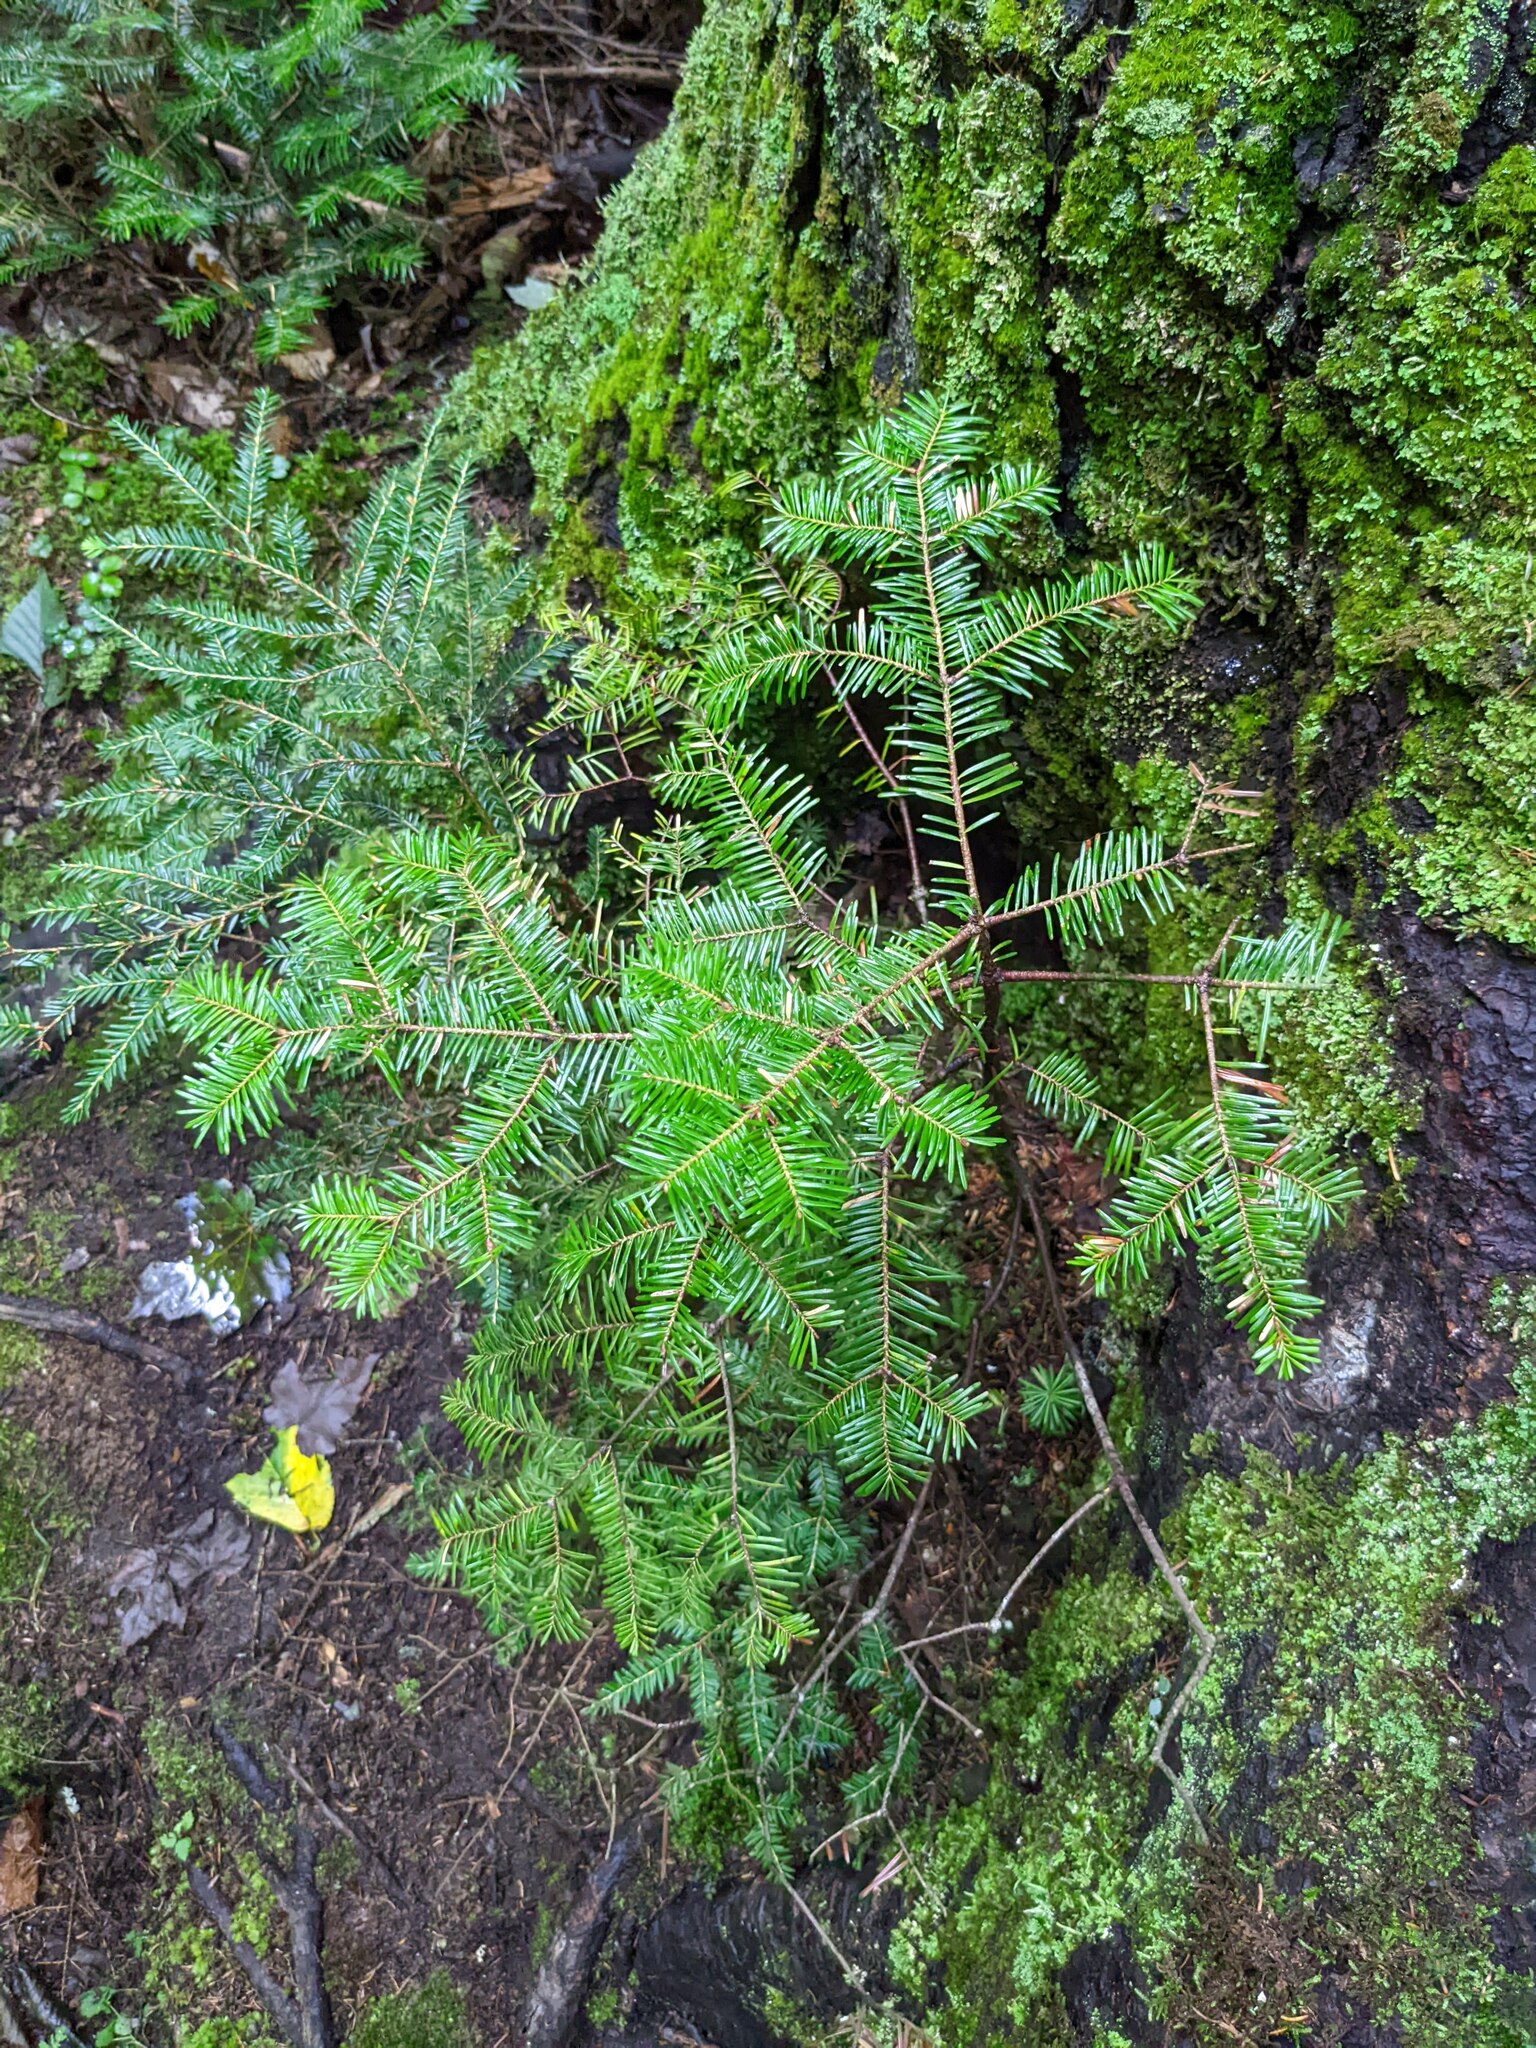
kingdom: Plantae
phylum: Tracheophyta
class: Pinopsida
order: Pinales
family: Pinaceae
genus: Abies
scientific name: Abies balsamea
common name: Balsam fir
